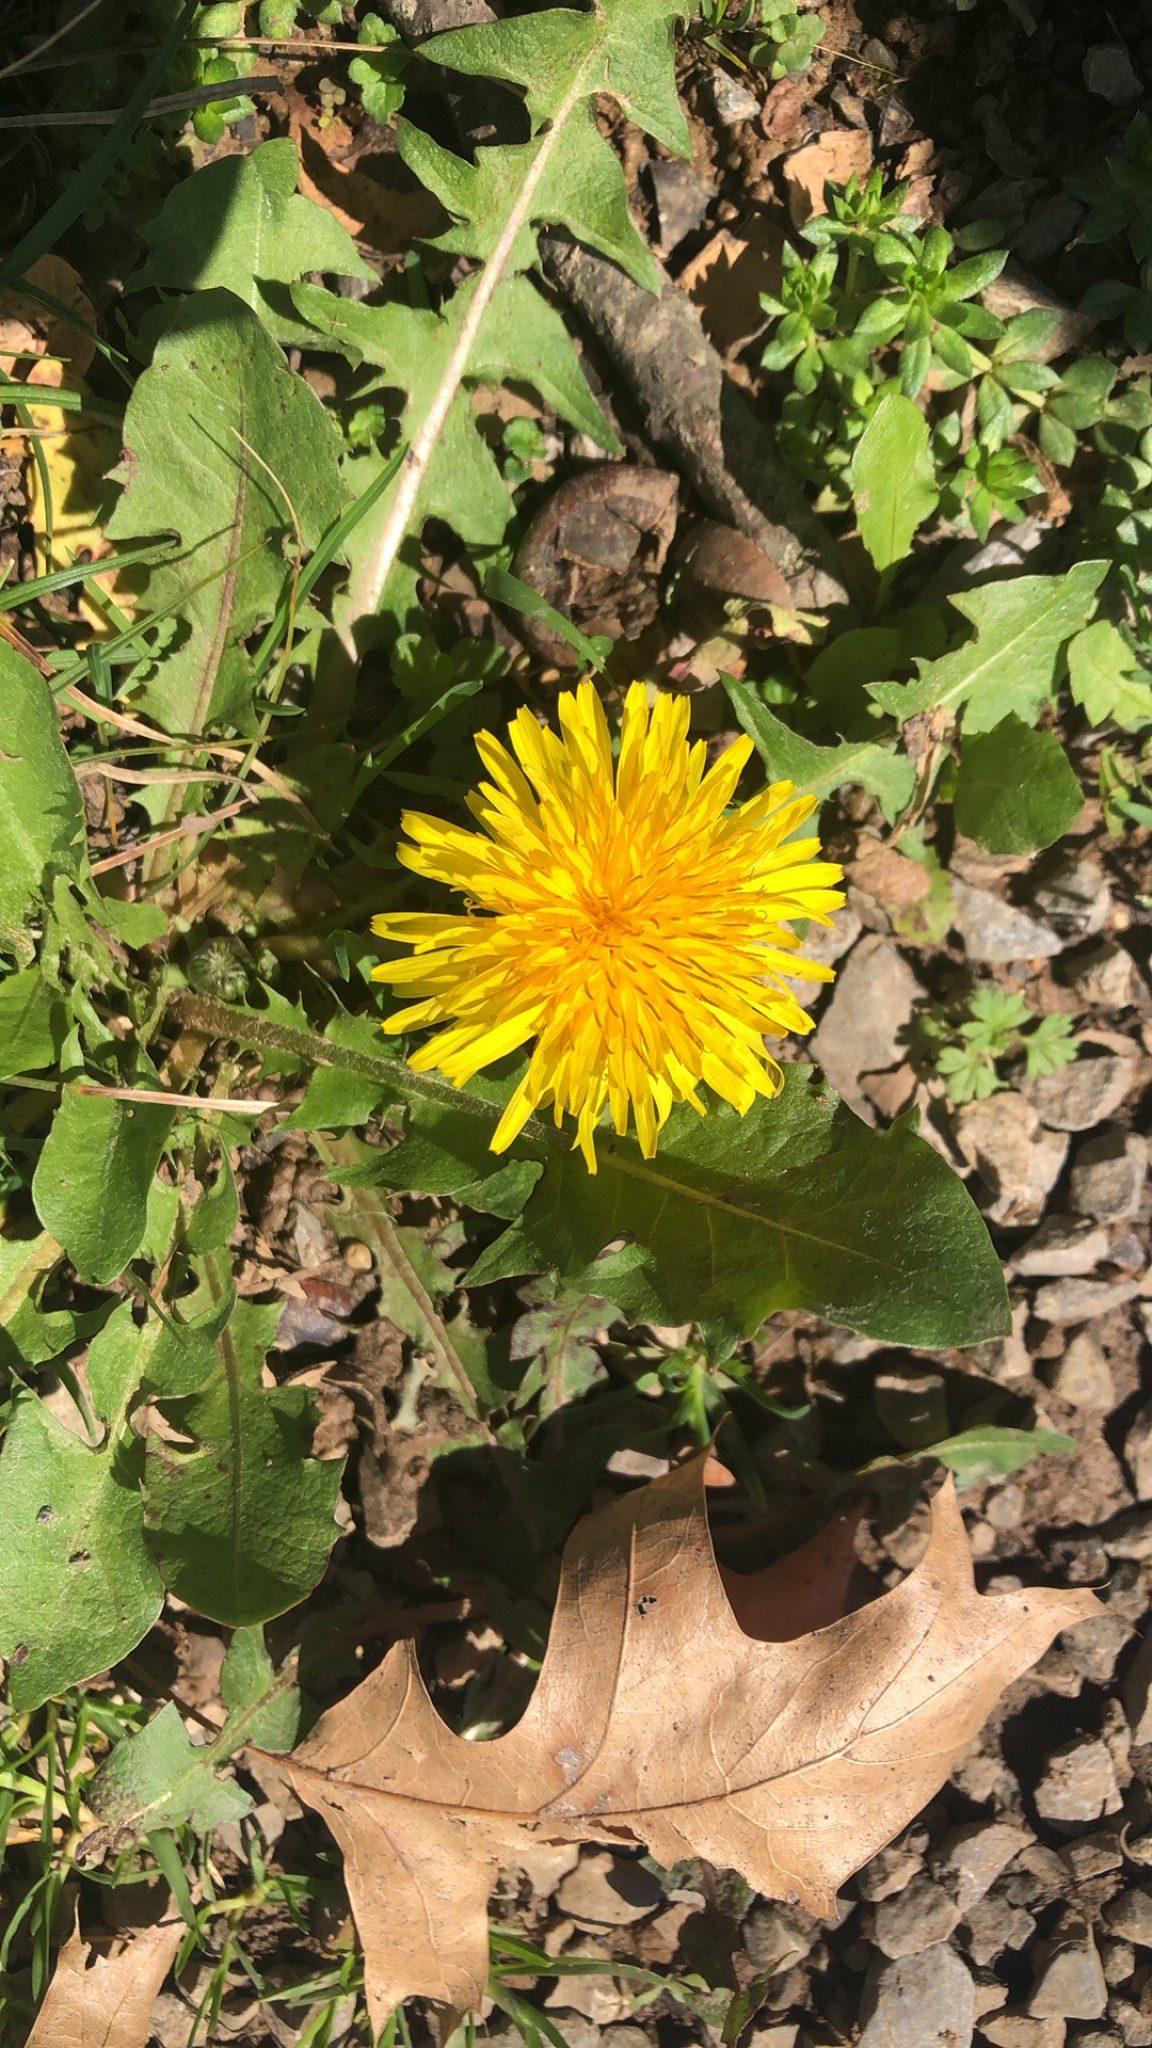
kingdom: Plantae
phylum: Tracheophyta
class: Magnoliopsida
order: Asterales
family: Asteraceae
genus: Taraxacum
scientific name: Taraxacum officinale
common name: Common dandelion
